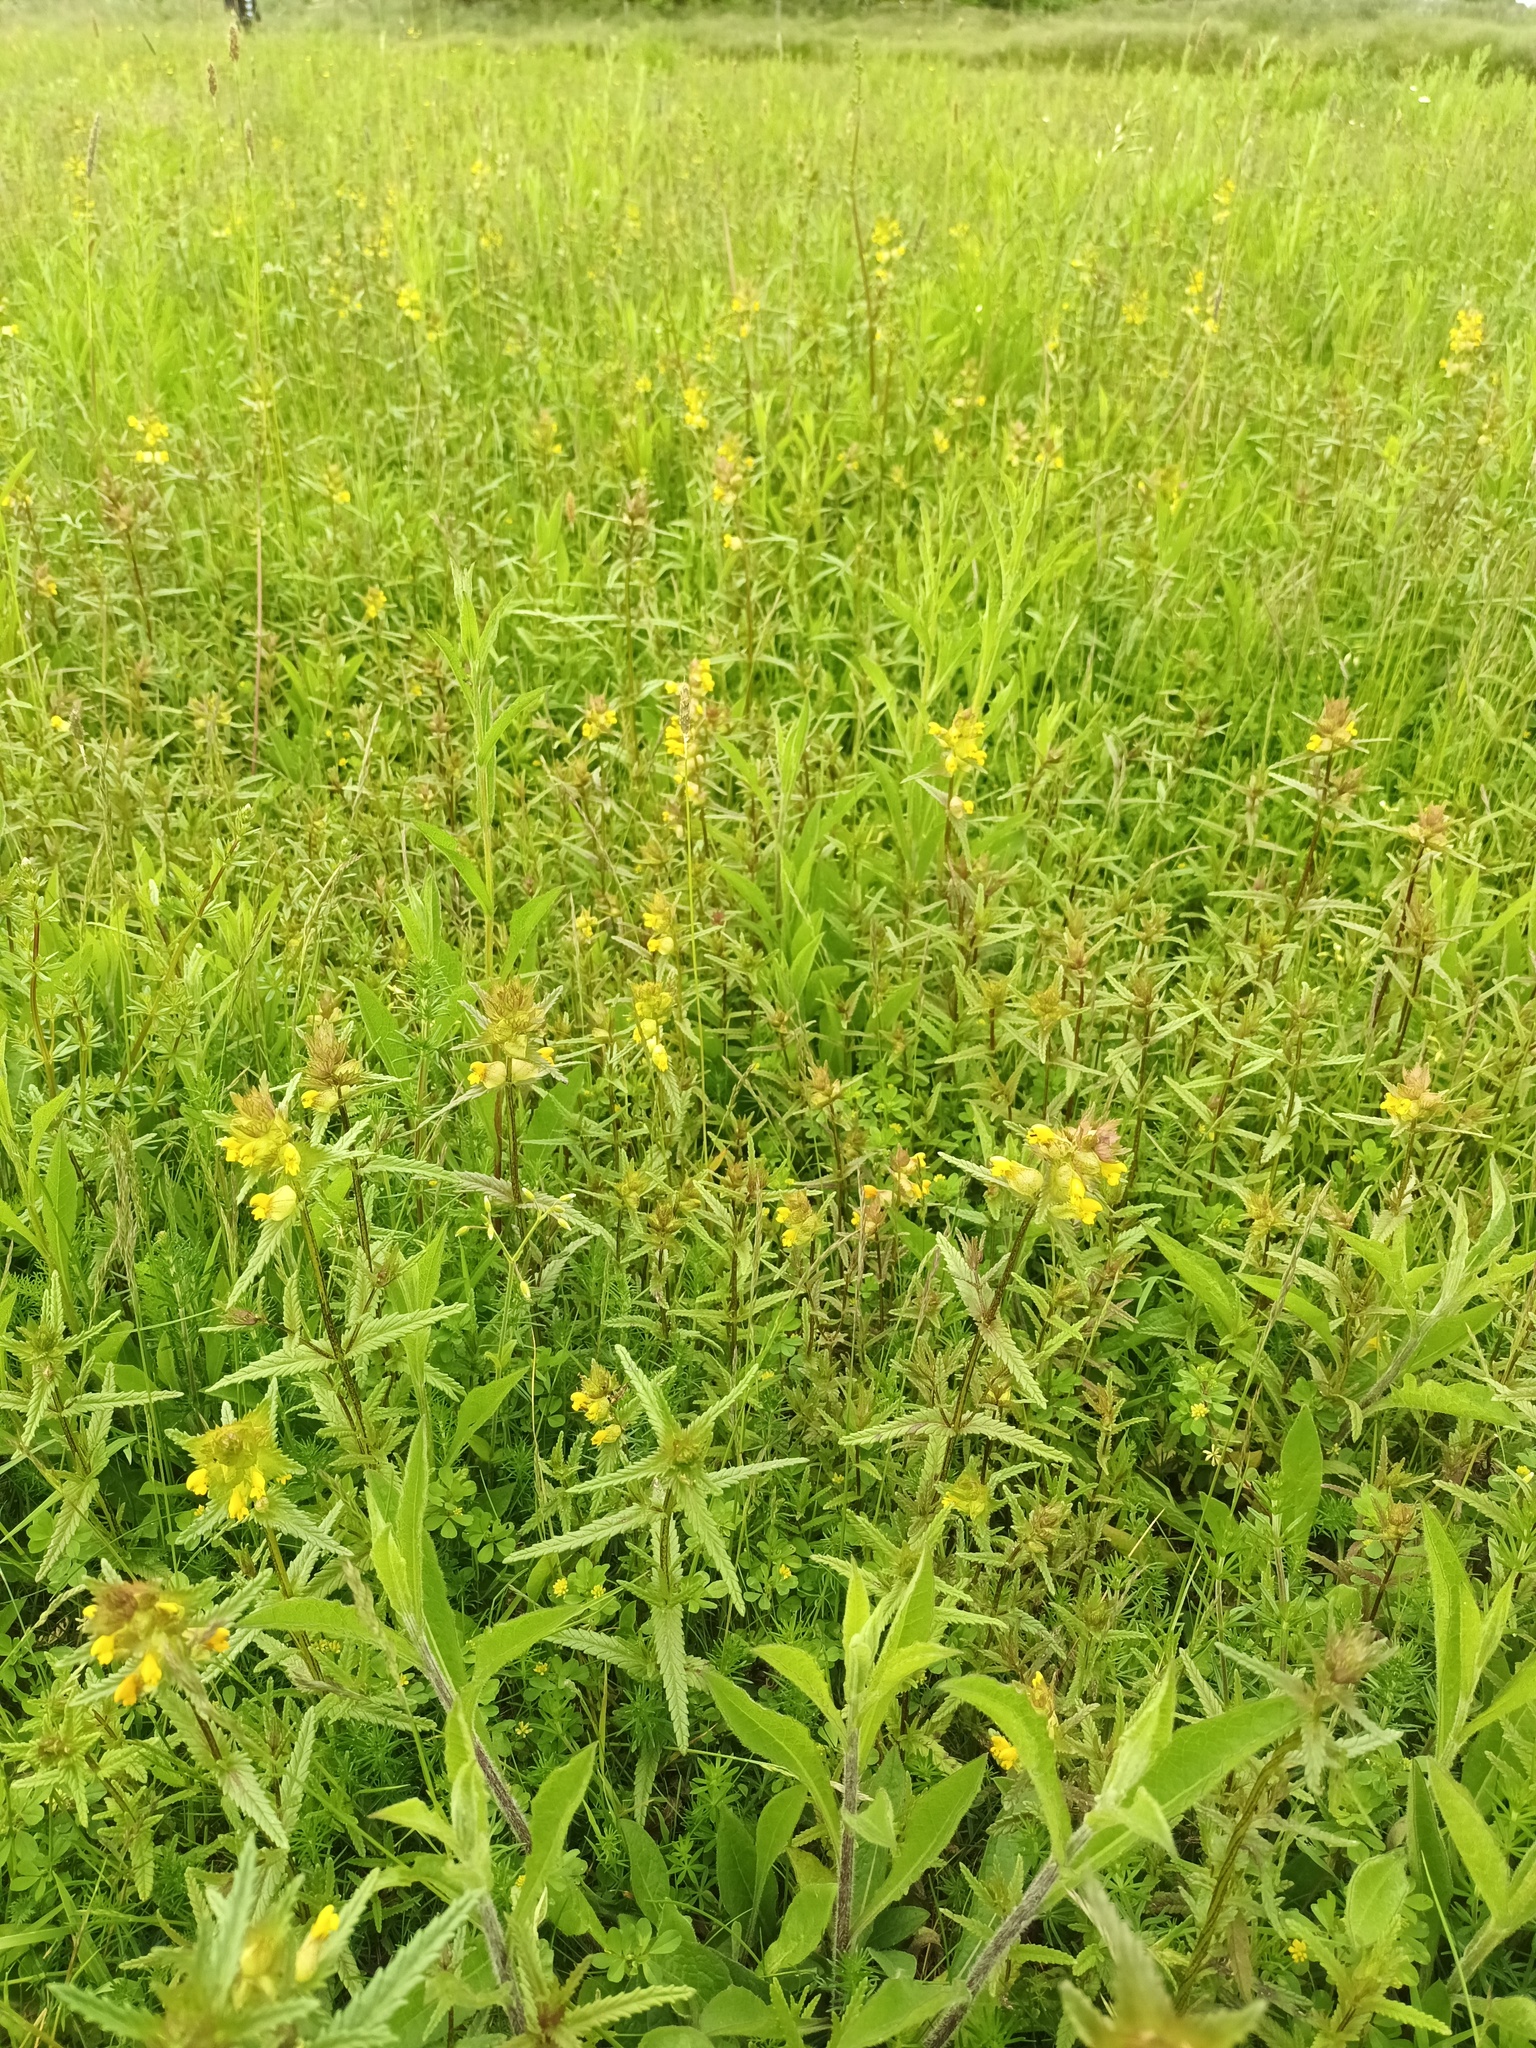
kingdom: Plantae
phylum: Tracheophyta
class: Magnoliopsida
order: Lamiales
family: Orobanchaceae
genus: Rhinanthus
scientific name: Rhinanthus minor
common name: Yellow-rattle
